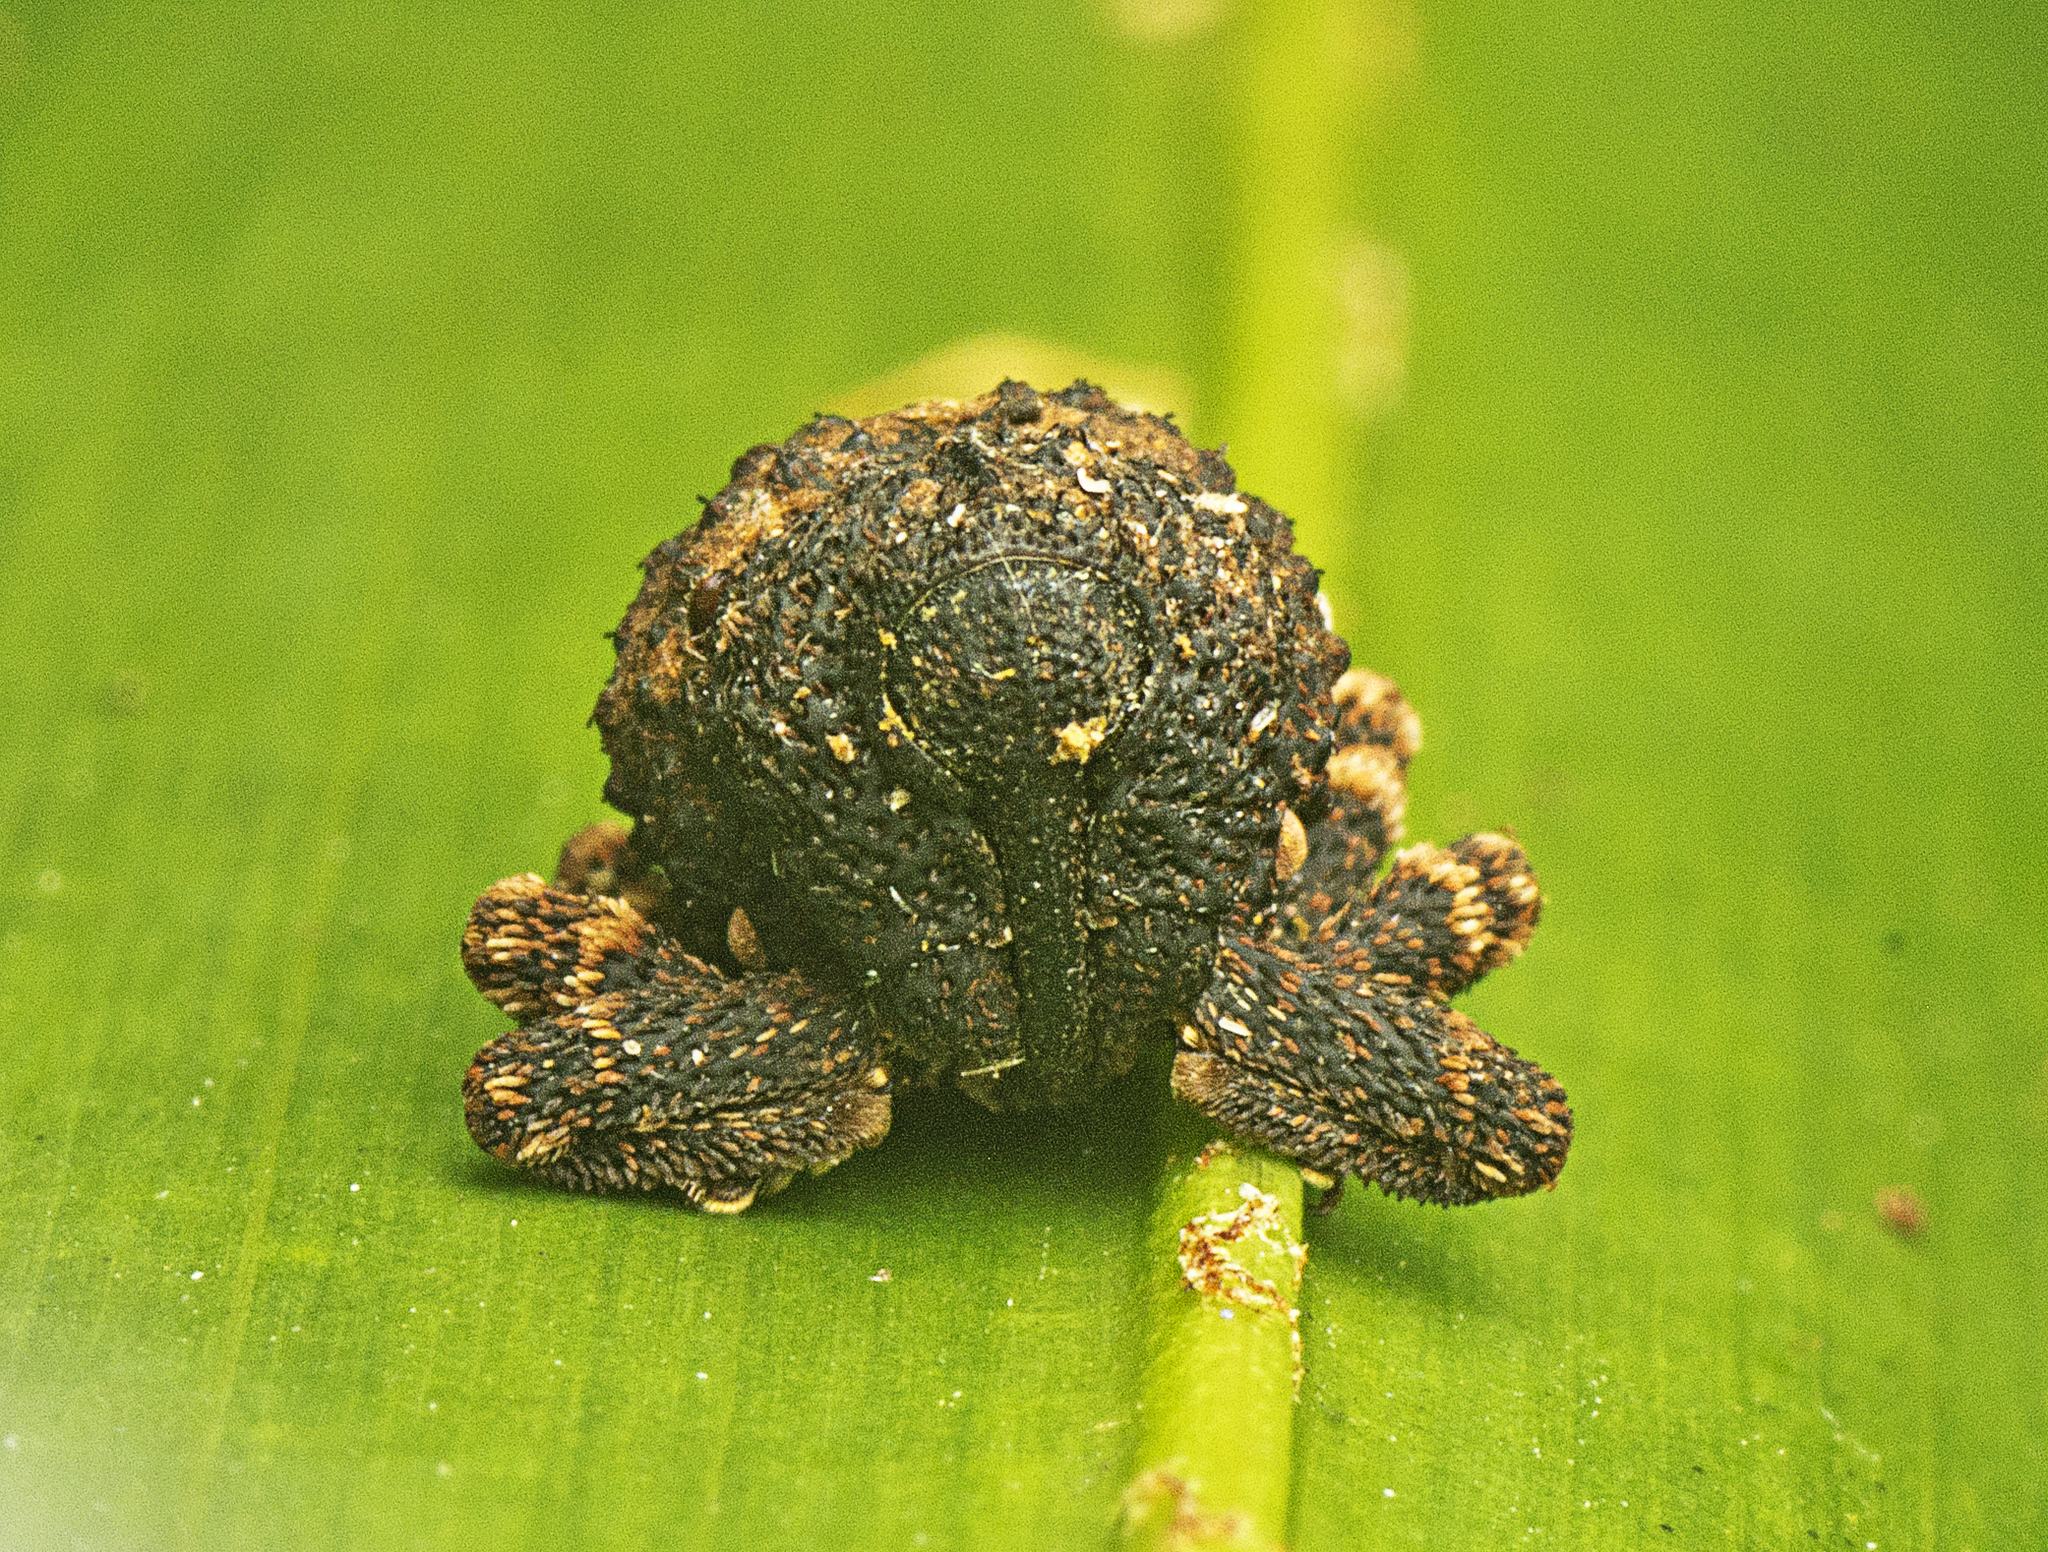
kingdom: Animalia
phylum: Arthropoda
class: Insecta
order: Coleoptera
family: Curculionidae
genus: Myrtesis
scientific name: Myrtesis caligata
